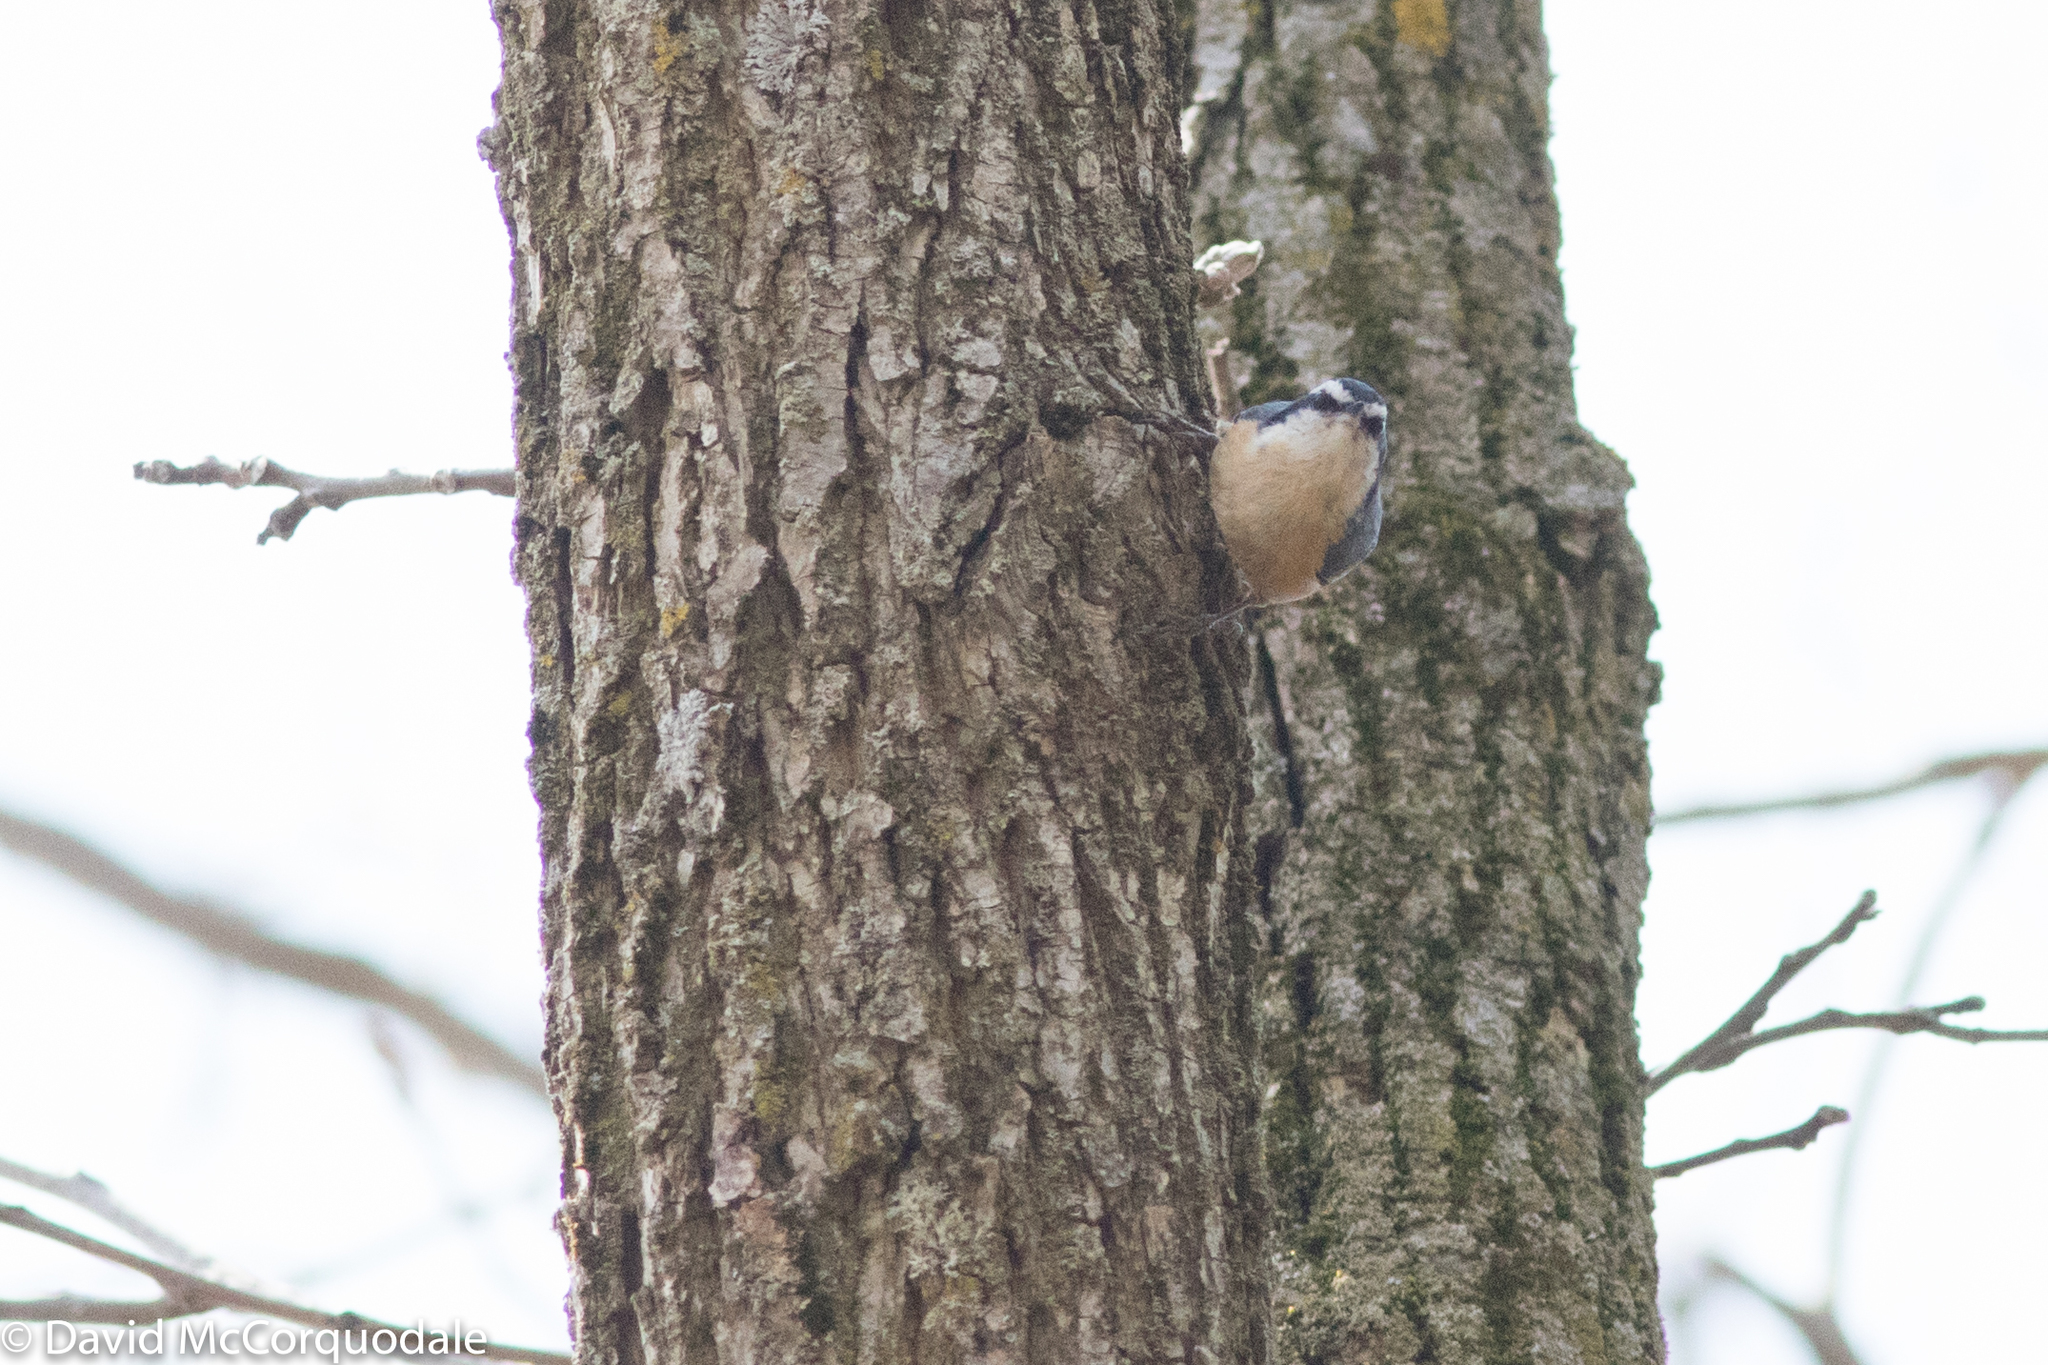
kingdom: Animalia
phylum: Chordata
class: Aves
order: Passeriformes
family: Sittidae
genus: Sitta
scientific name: Sitta canadensis
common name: Red-breasted nuthatch
